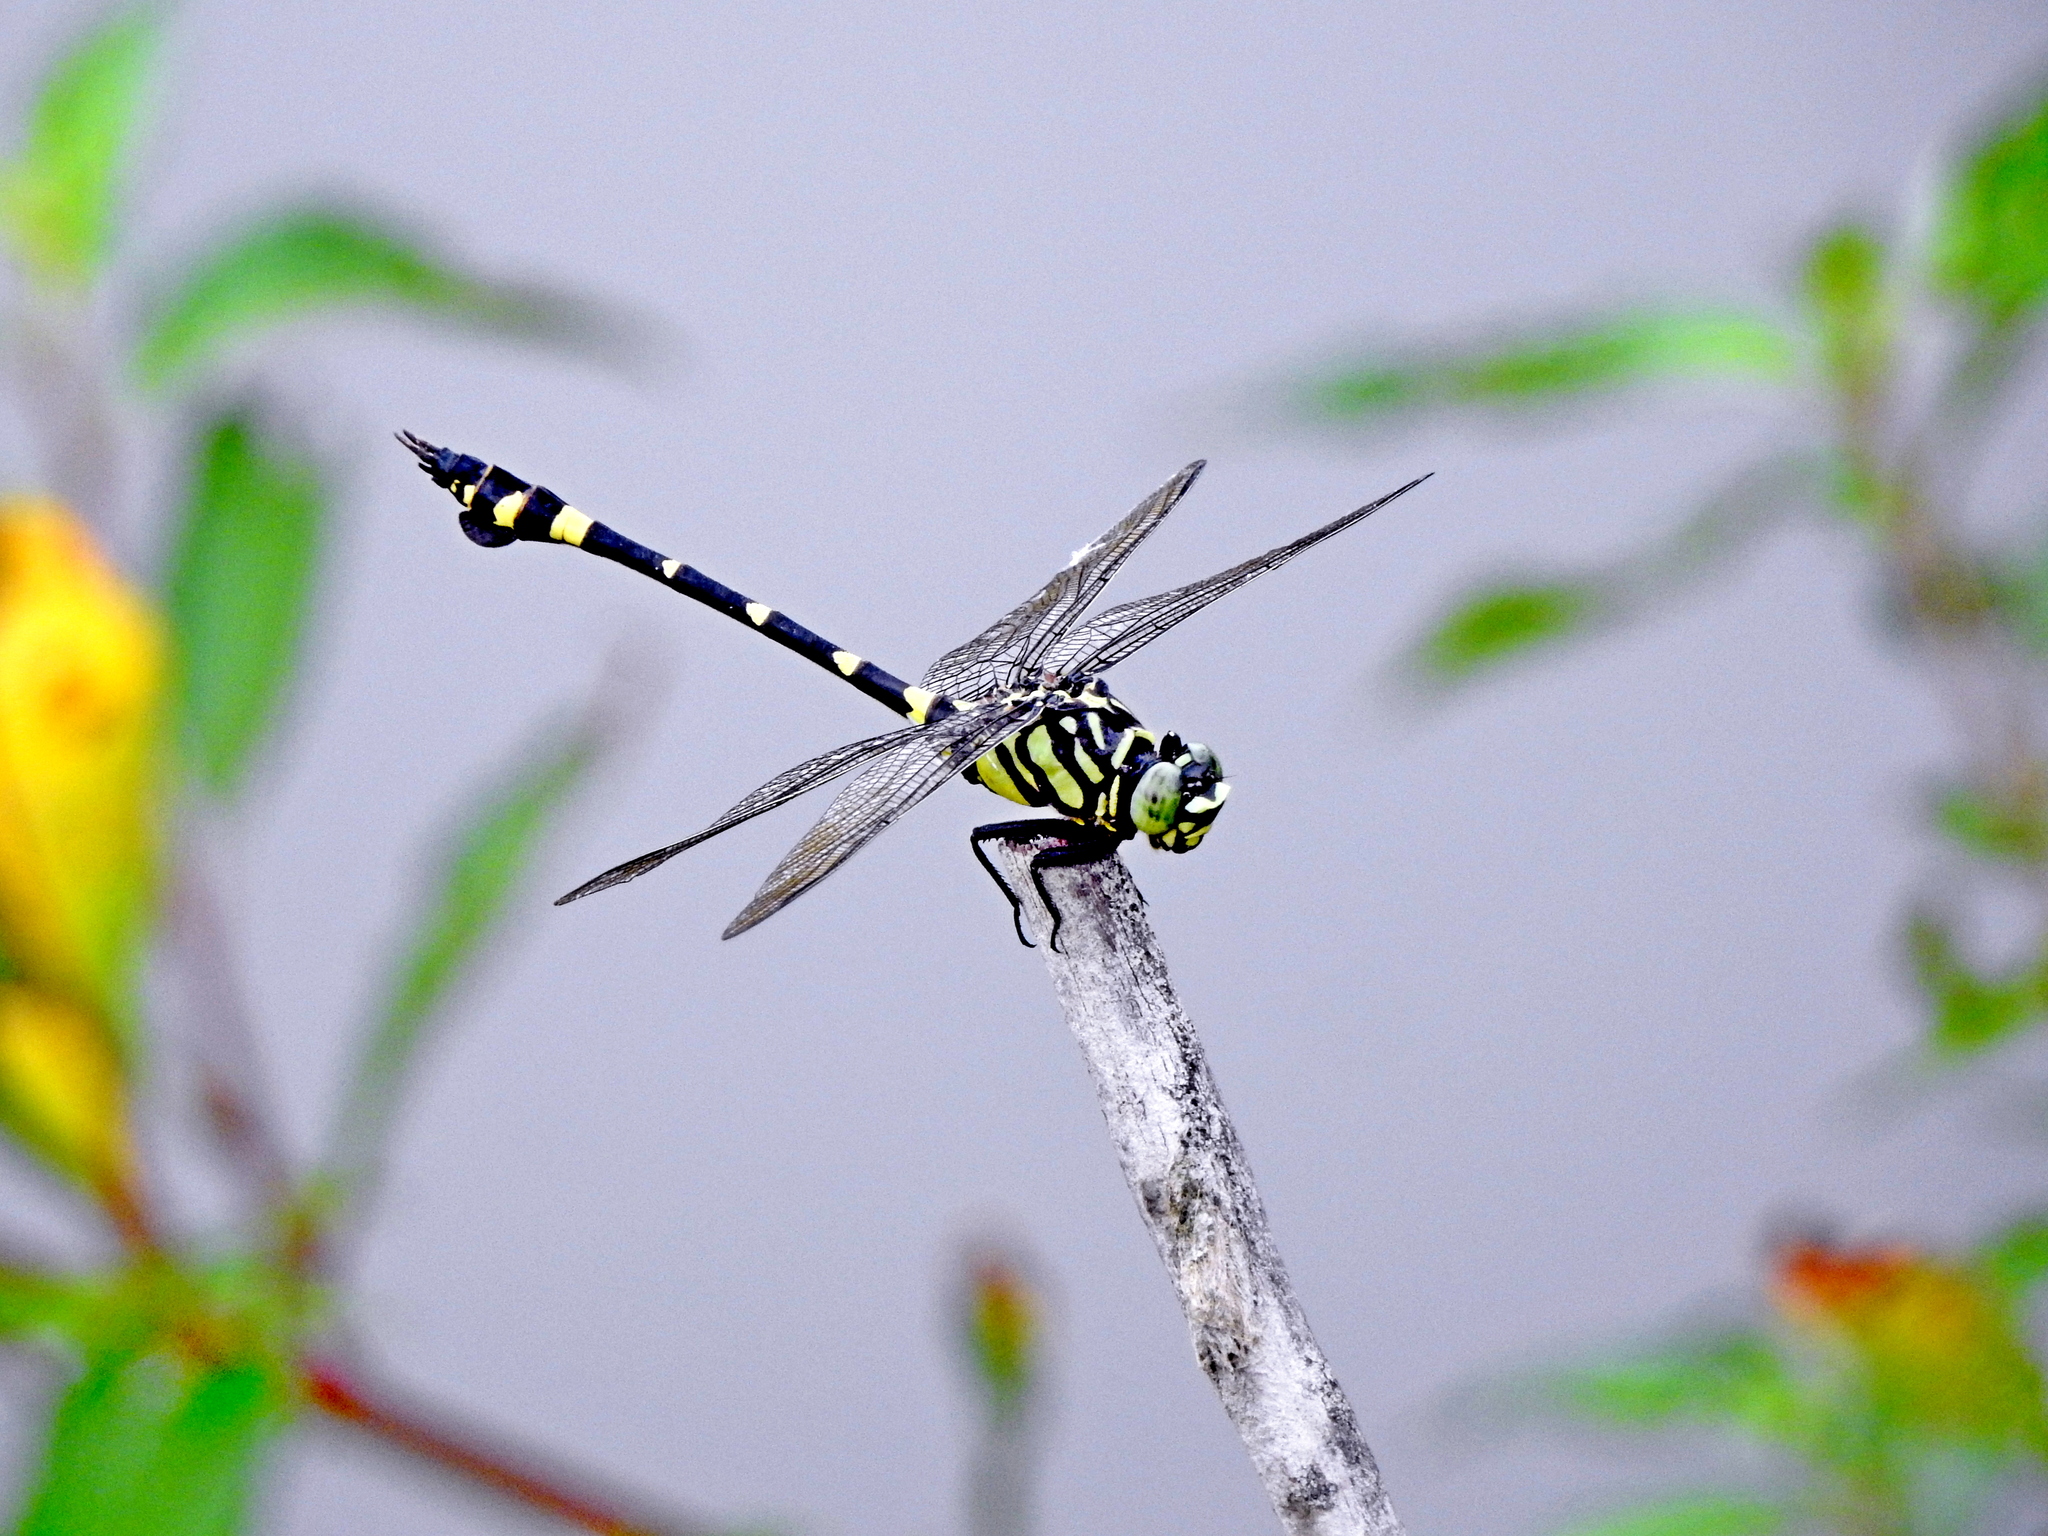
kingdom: Animalia
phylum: Arthropoda
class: Insecta
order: Odonata
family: Gomphidae
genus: Ictinogomphus
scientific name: Ictinogomphus rapax
